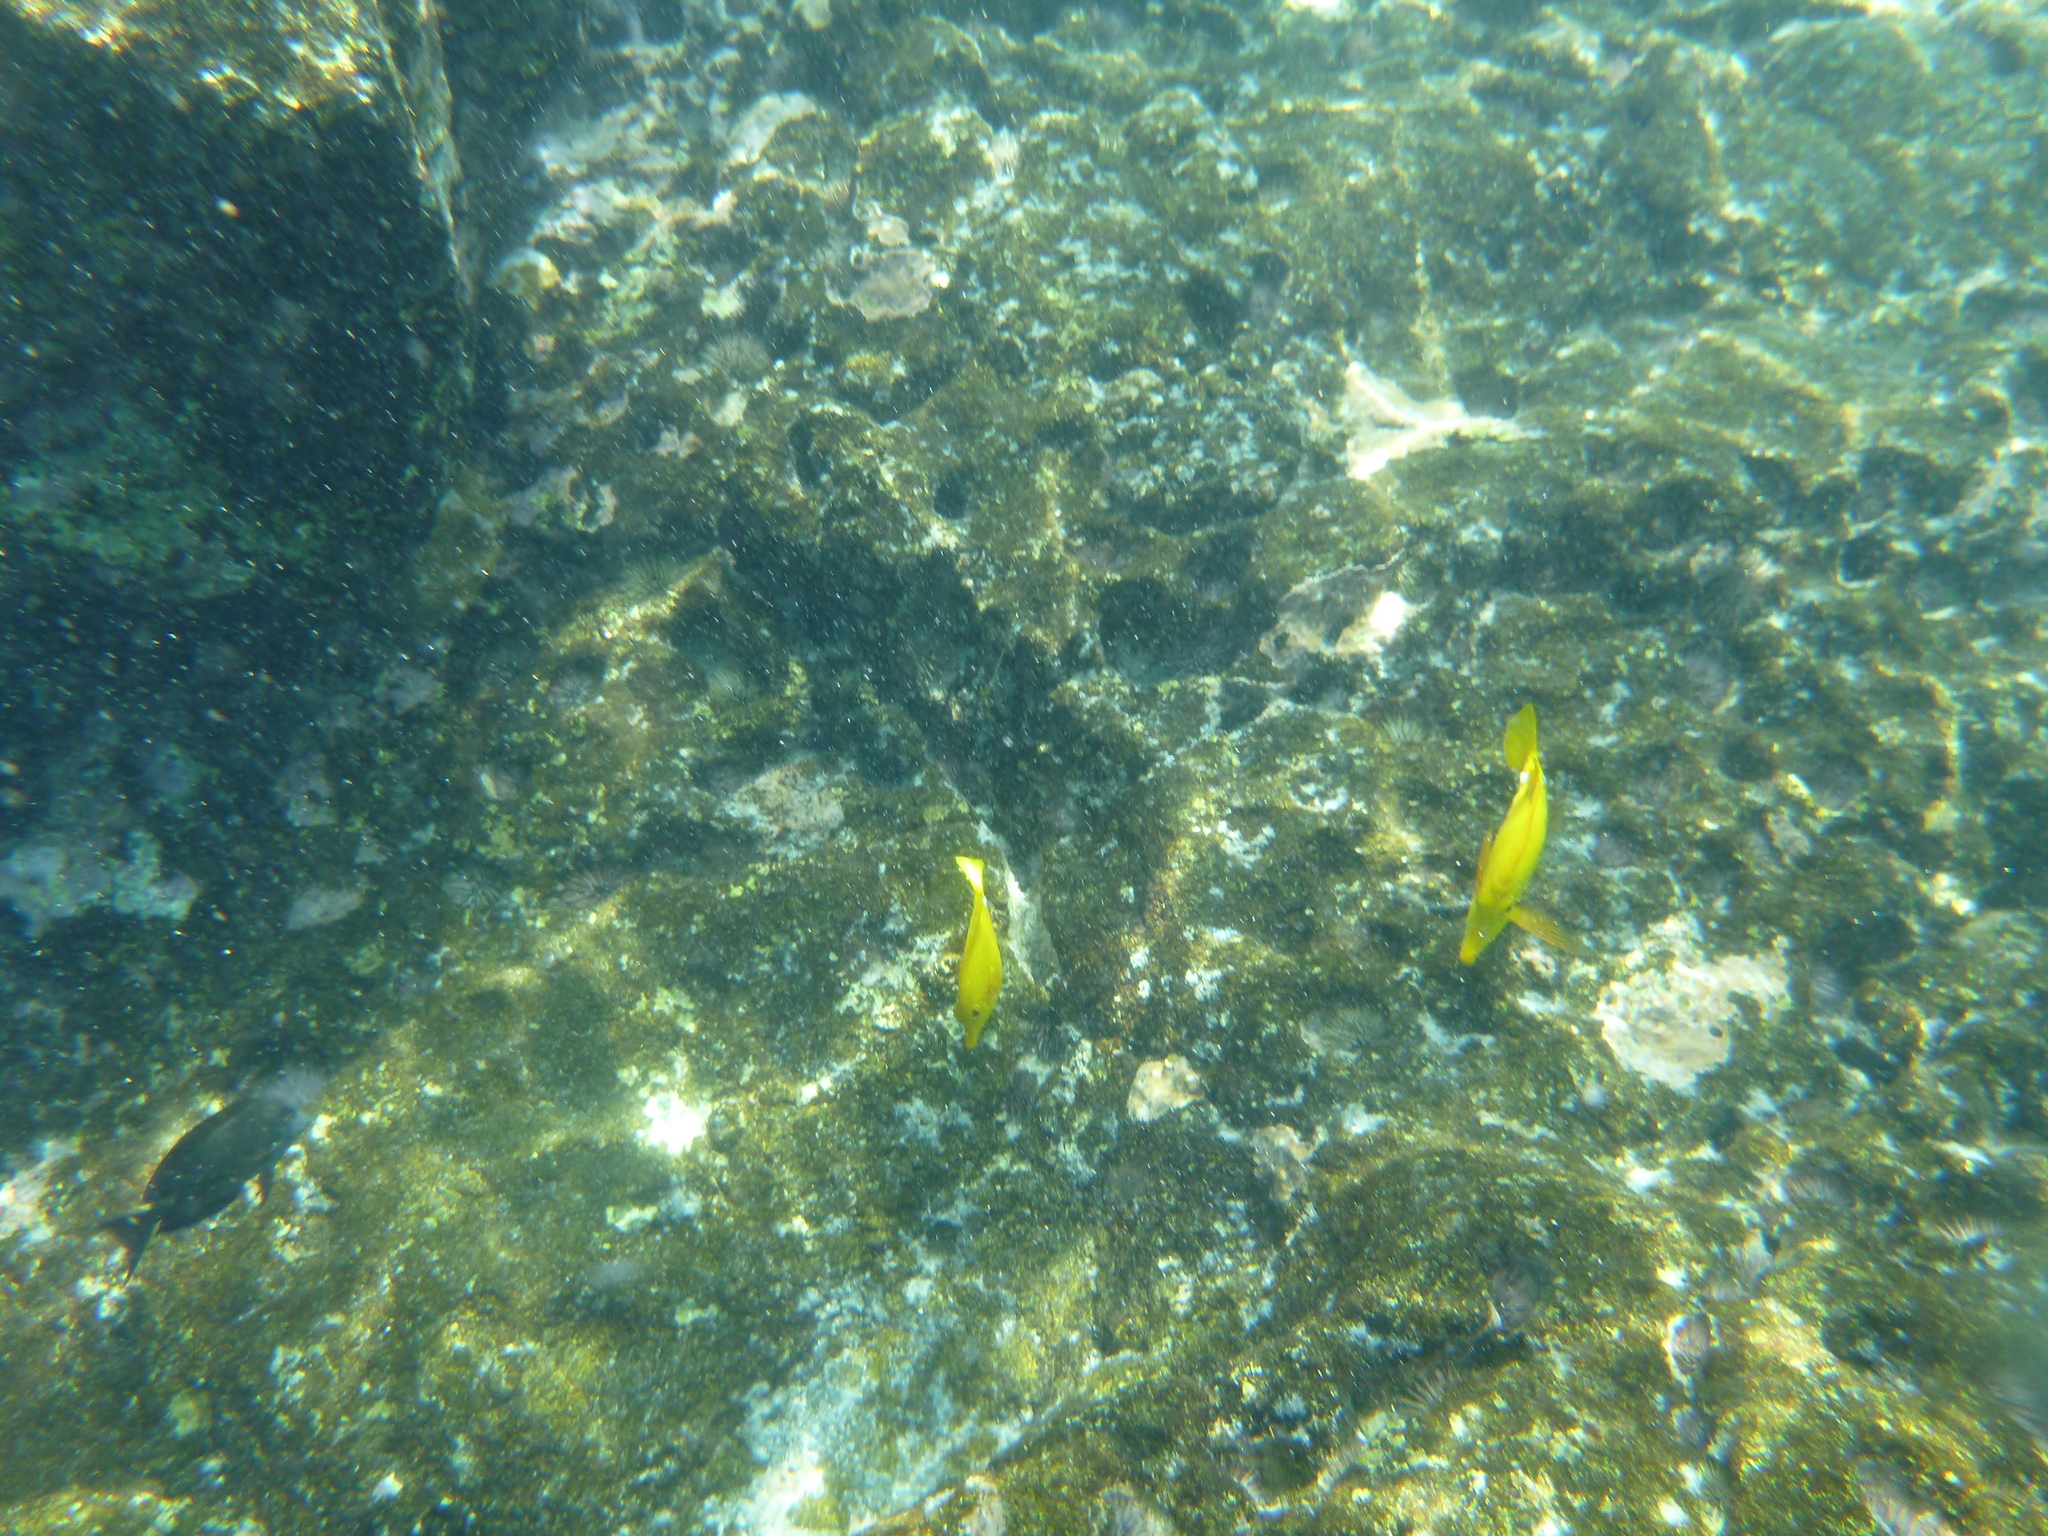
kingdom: Animalia
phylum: Chordata
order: Perciformes
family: Acanthuridae
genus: Zebrasoma
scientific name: Zebrasoma flavescens
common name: Yellow tang
